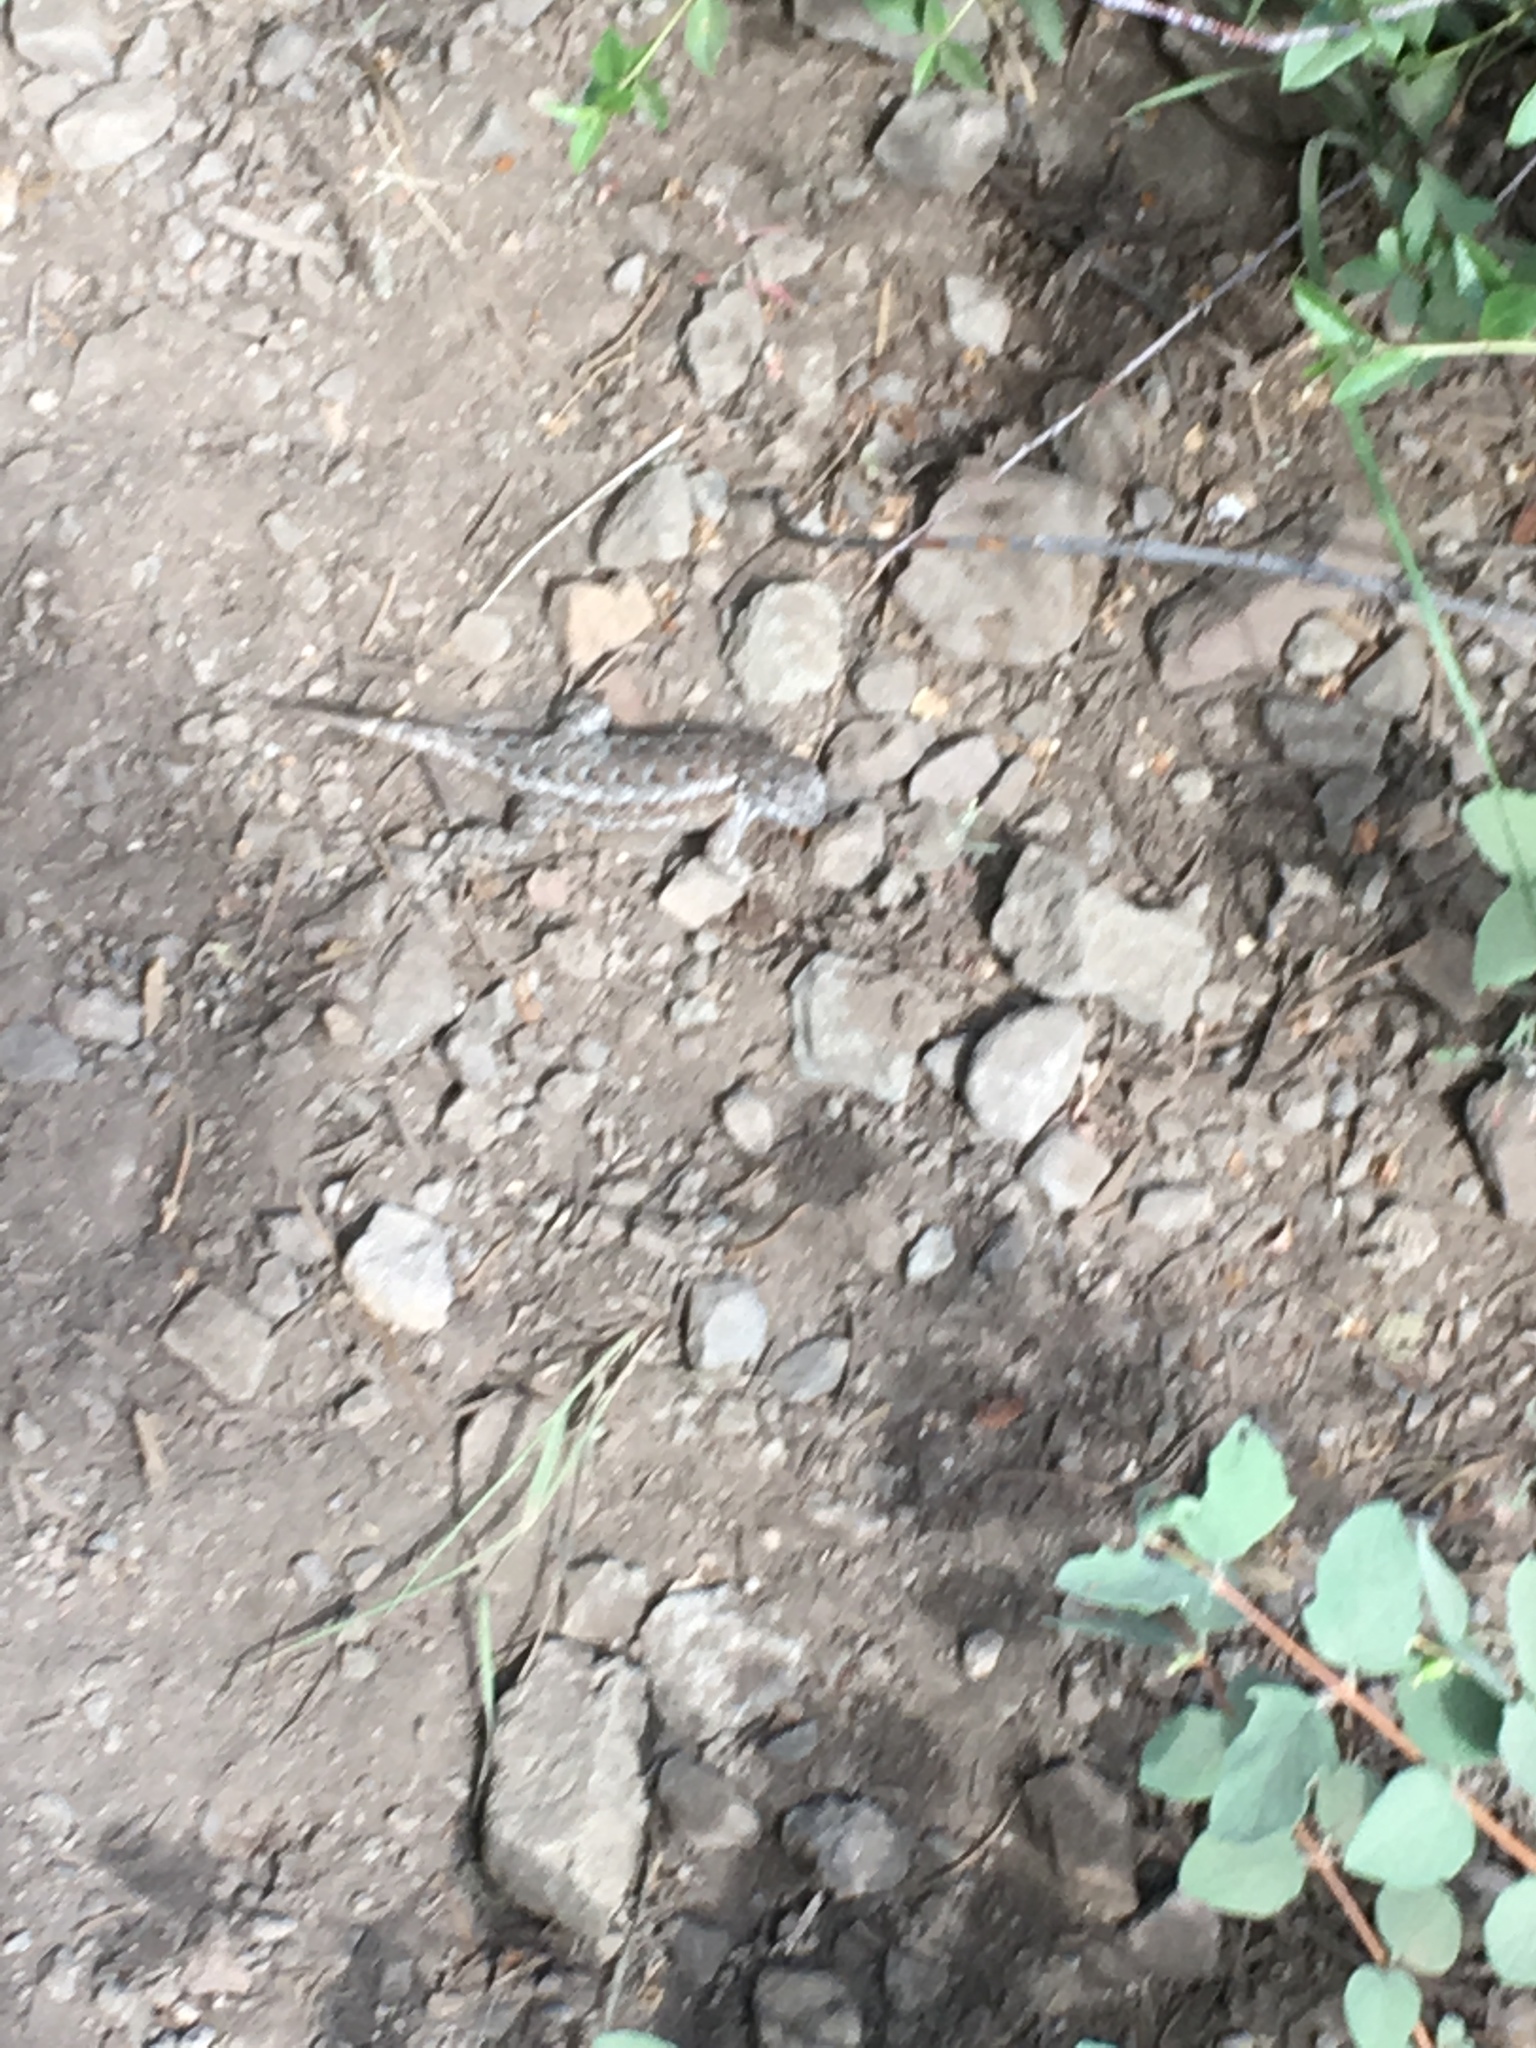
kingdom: Animalia
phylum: Chordata
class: Squamata
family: Phrynosomatidae
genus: Sceloporus
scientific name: Sceloporus occidentalis
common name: Western fence lizard
